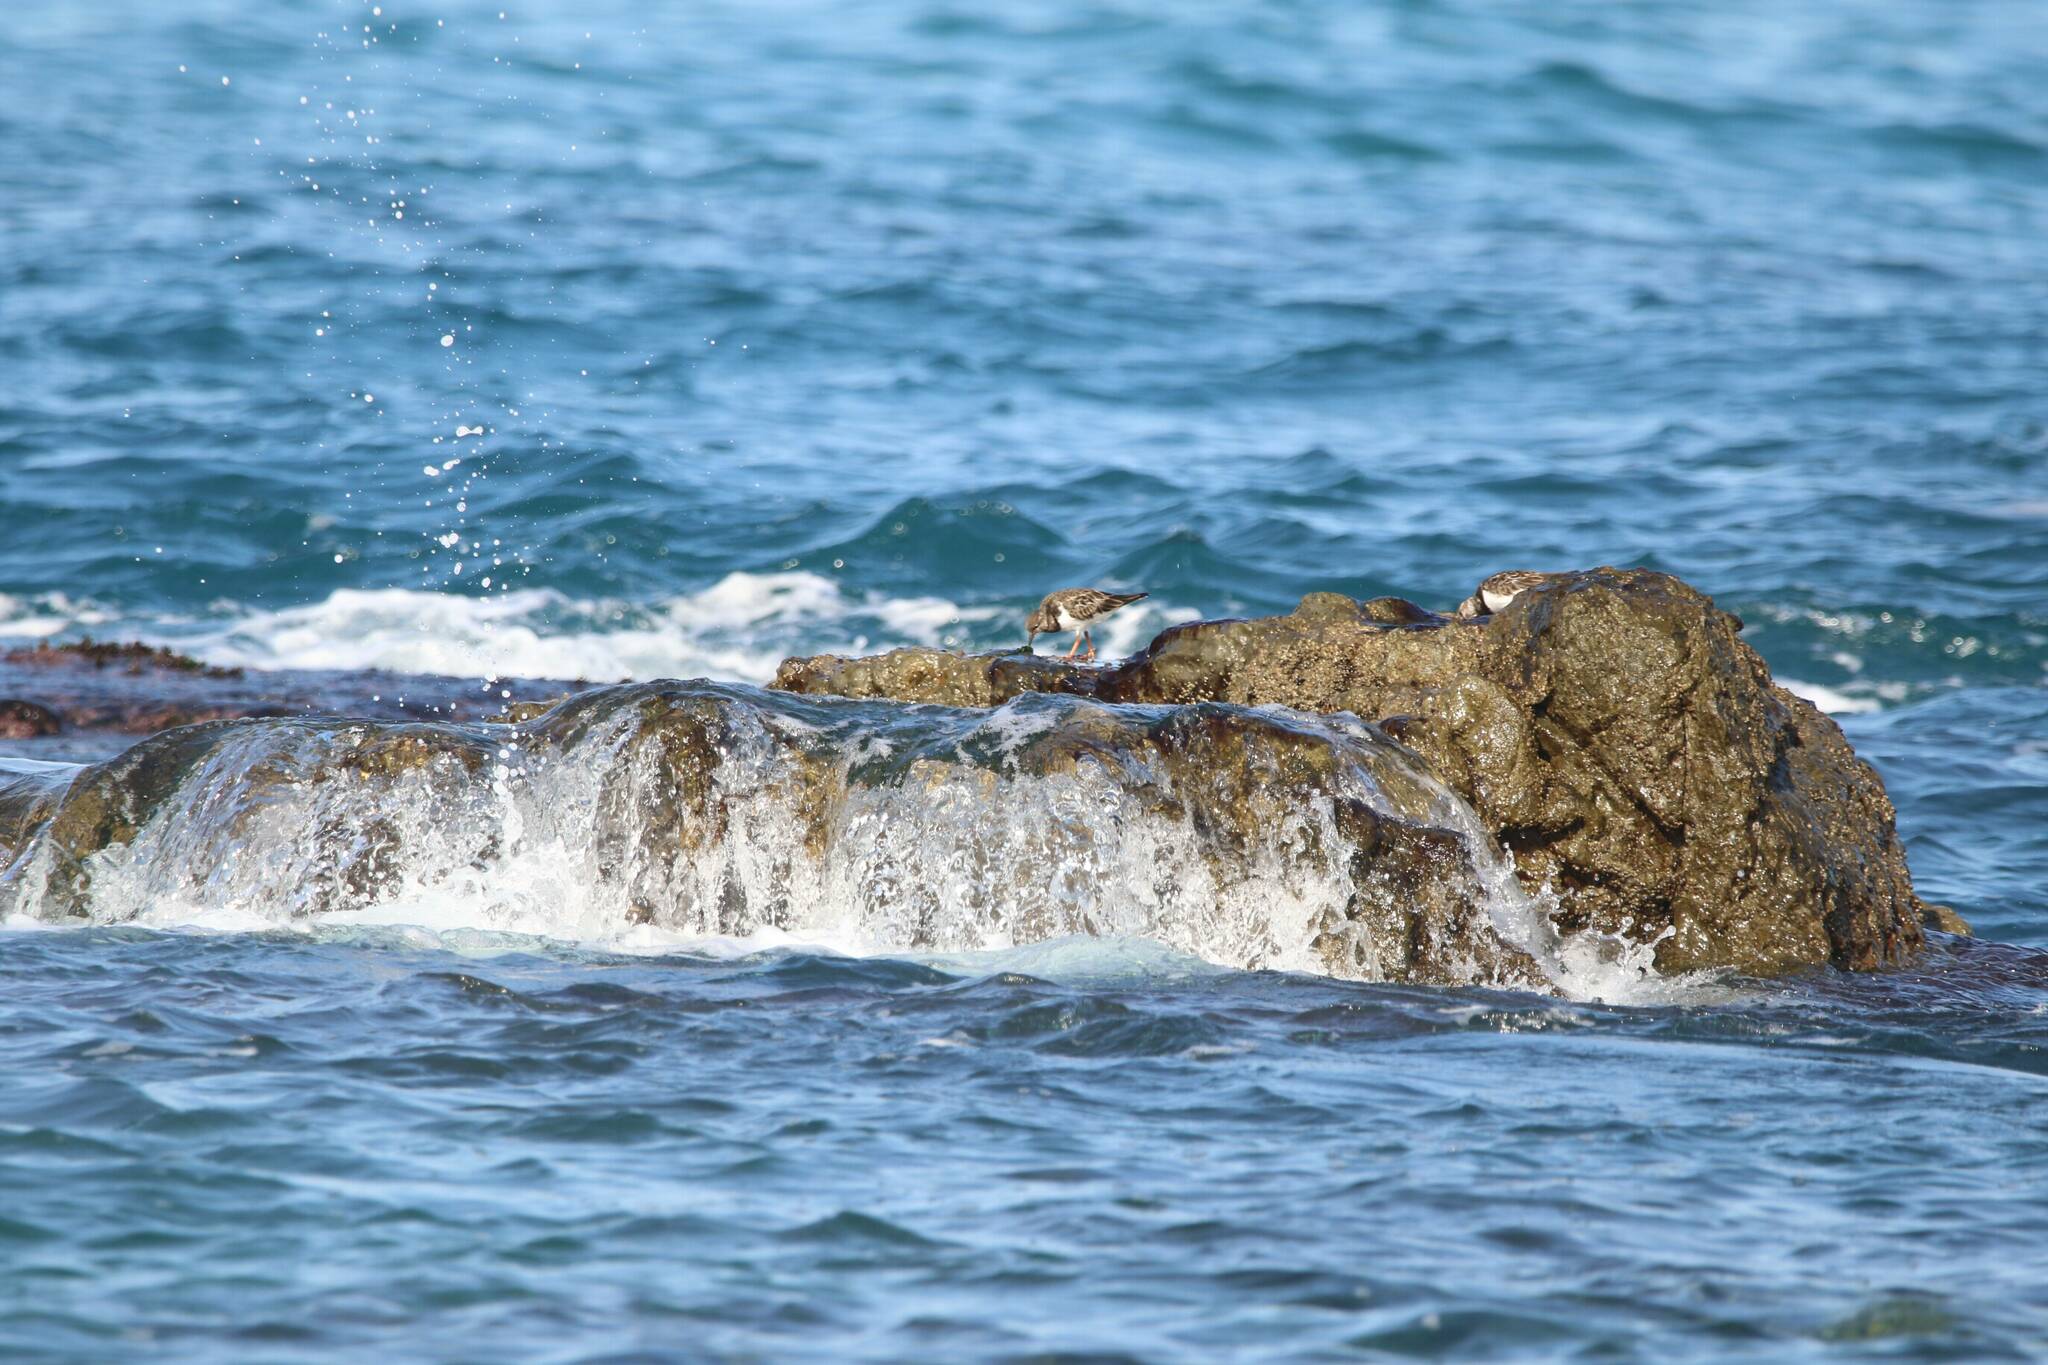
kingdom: Animalia
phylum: Chordata
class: Aves
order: Charadriiformes
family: Scolopacidae
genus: Arenaria
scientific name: Arenaria interpres
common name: Ruddy turnstone
